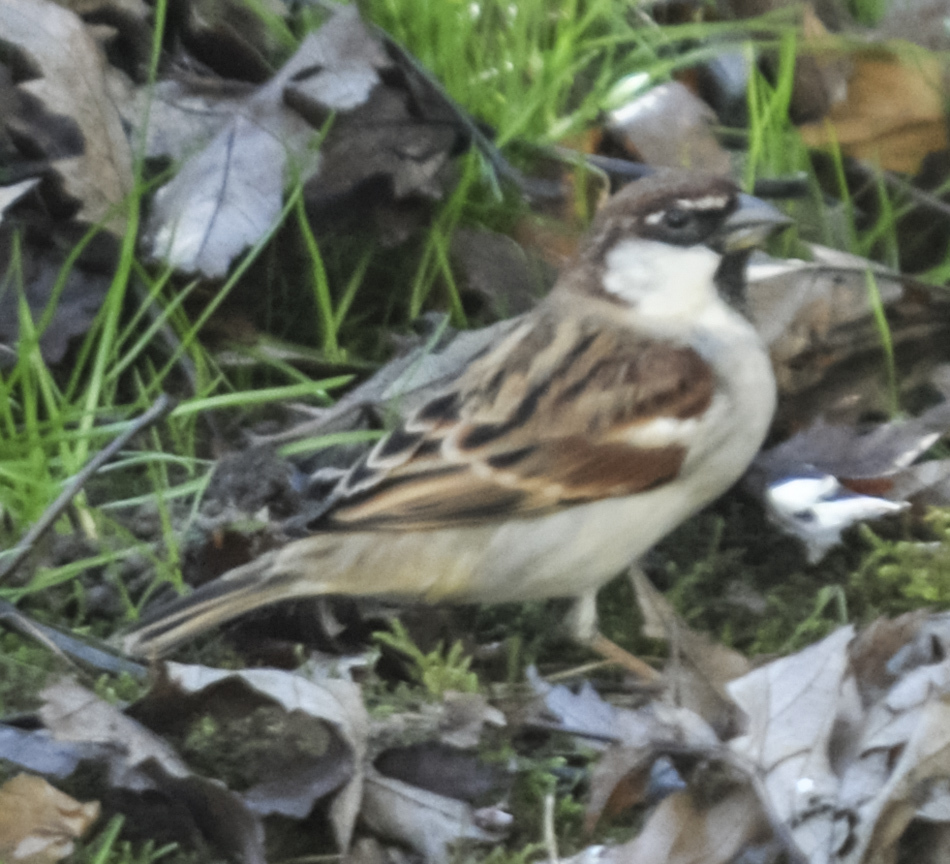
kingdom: Animalia
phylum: Chordata
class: Aves
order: Passeriformes
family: Passeridae
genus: Passer
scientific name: Passer italiae
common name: Italian sparrow
